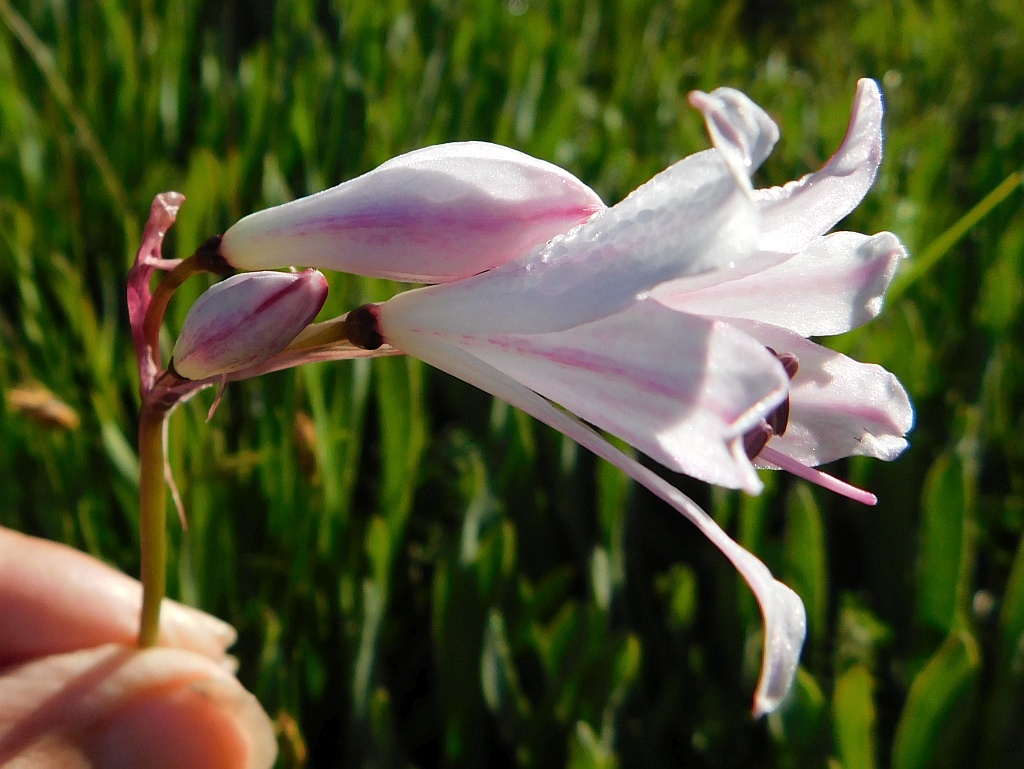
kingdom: Plantae
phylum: Tracheophyta
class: Liliopsida
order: Asparagales
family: Amaryllidaceae
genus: Nerine
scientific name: Nerine pudica
